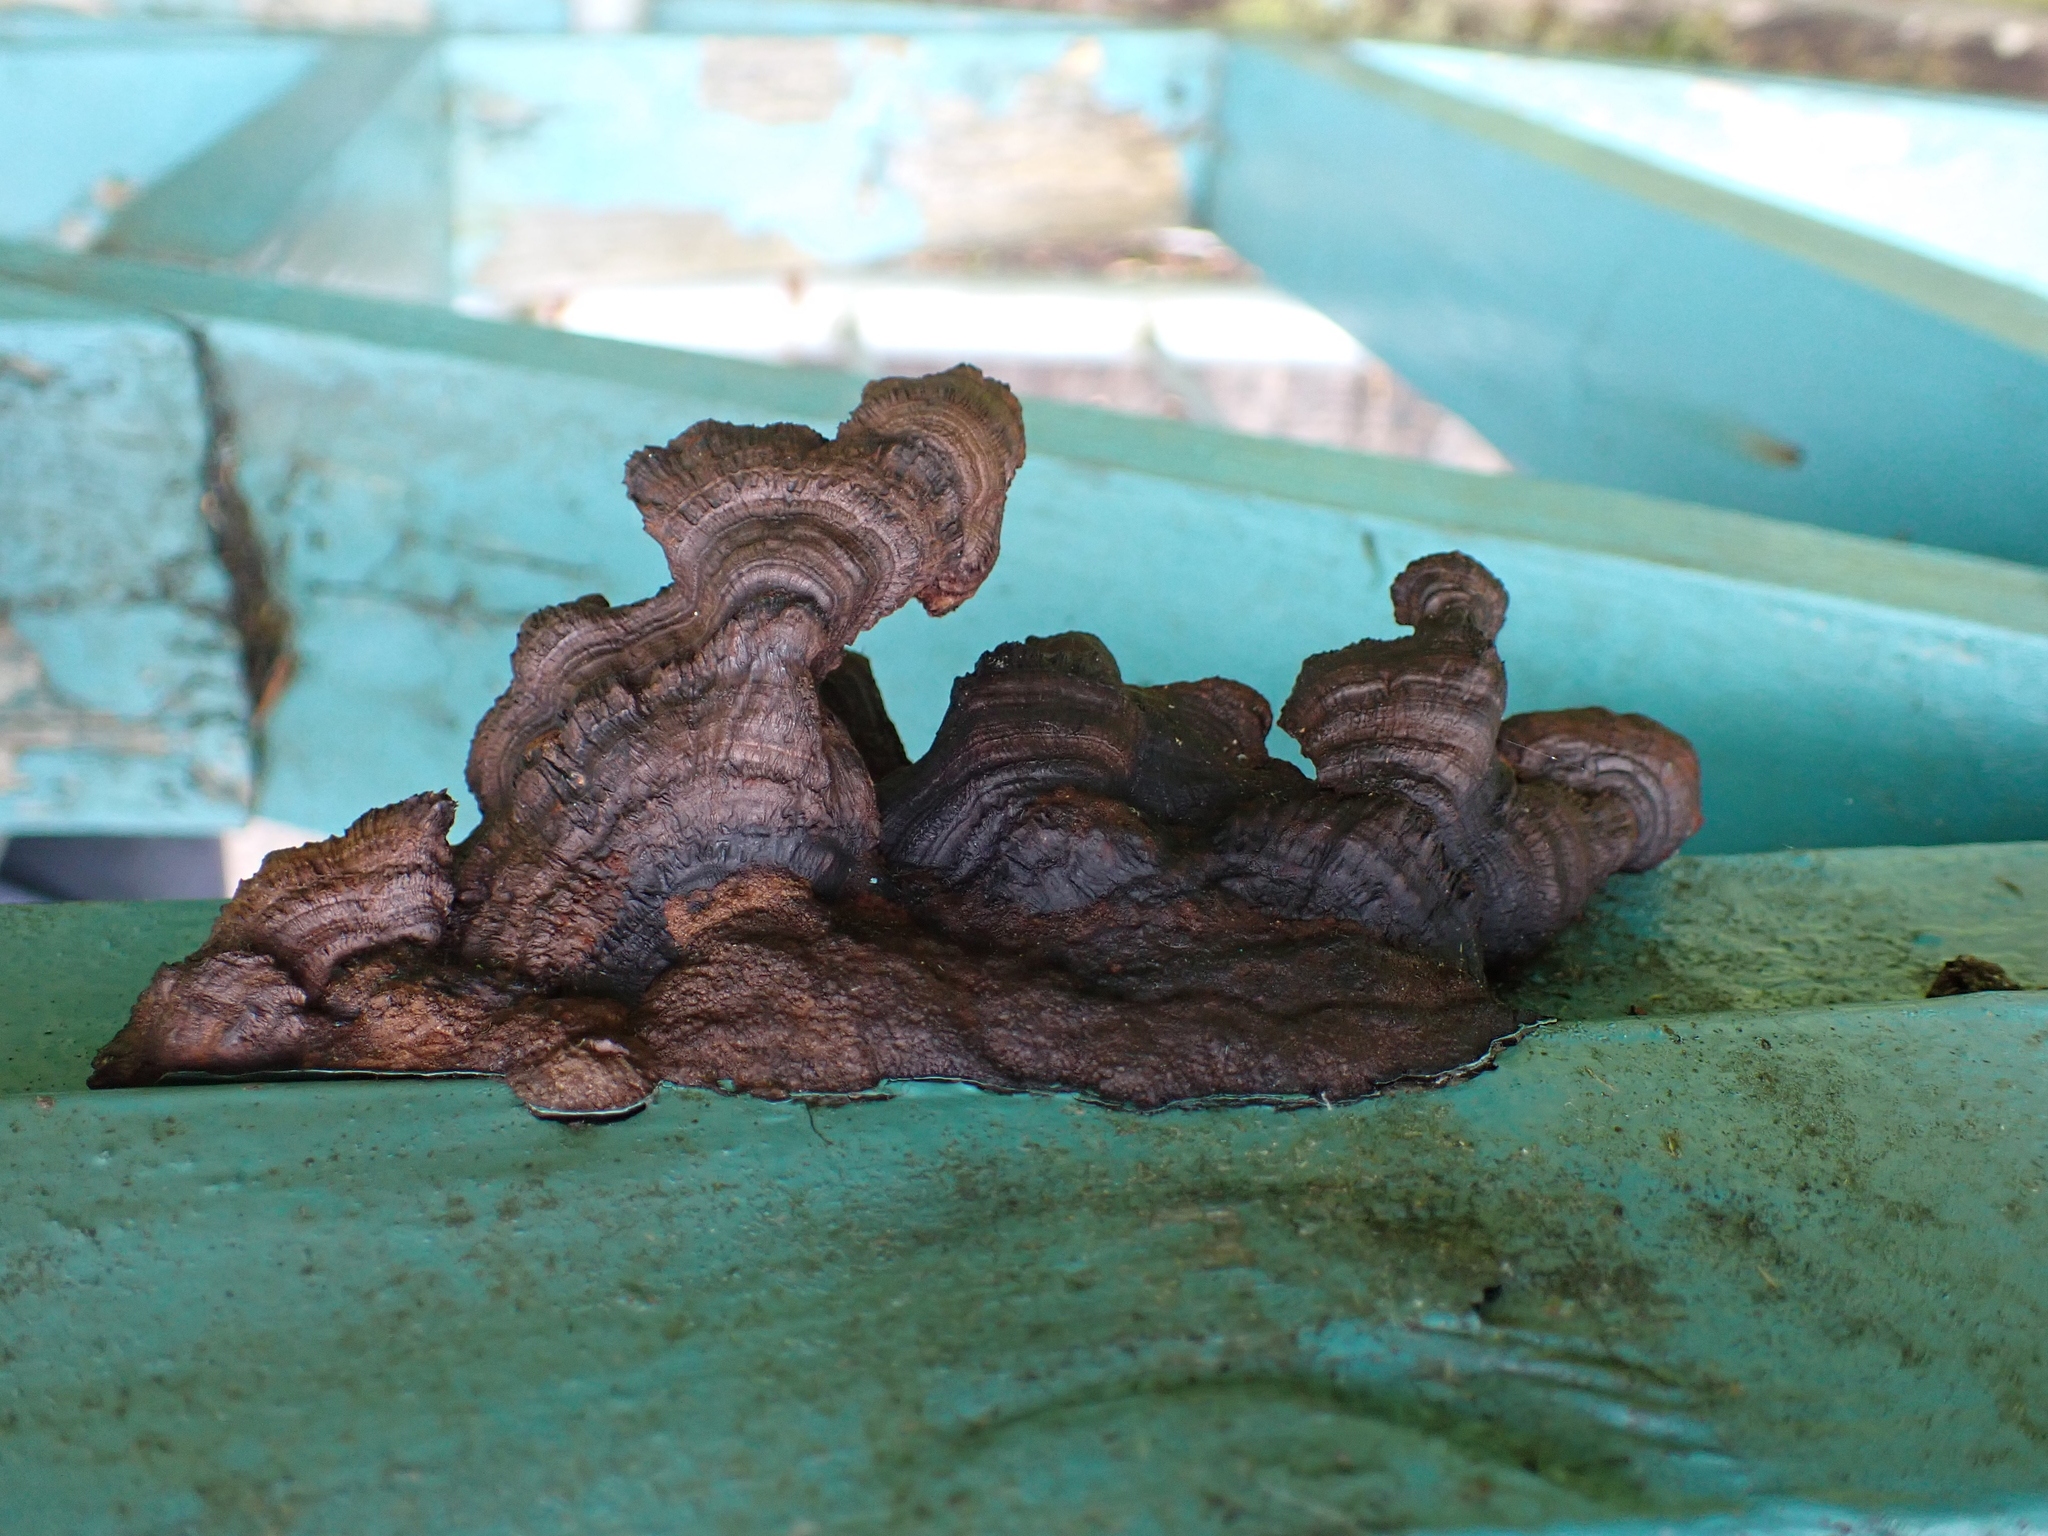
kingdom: Fungi
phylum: Basidiomycota
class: Agaricomycetes
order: Gloeophyllales
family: Gloeophyllaceae
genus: Gloeophyllum
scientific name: Gloeophyllum sepiarium
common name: Conifer mazegill
